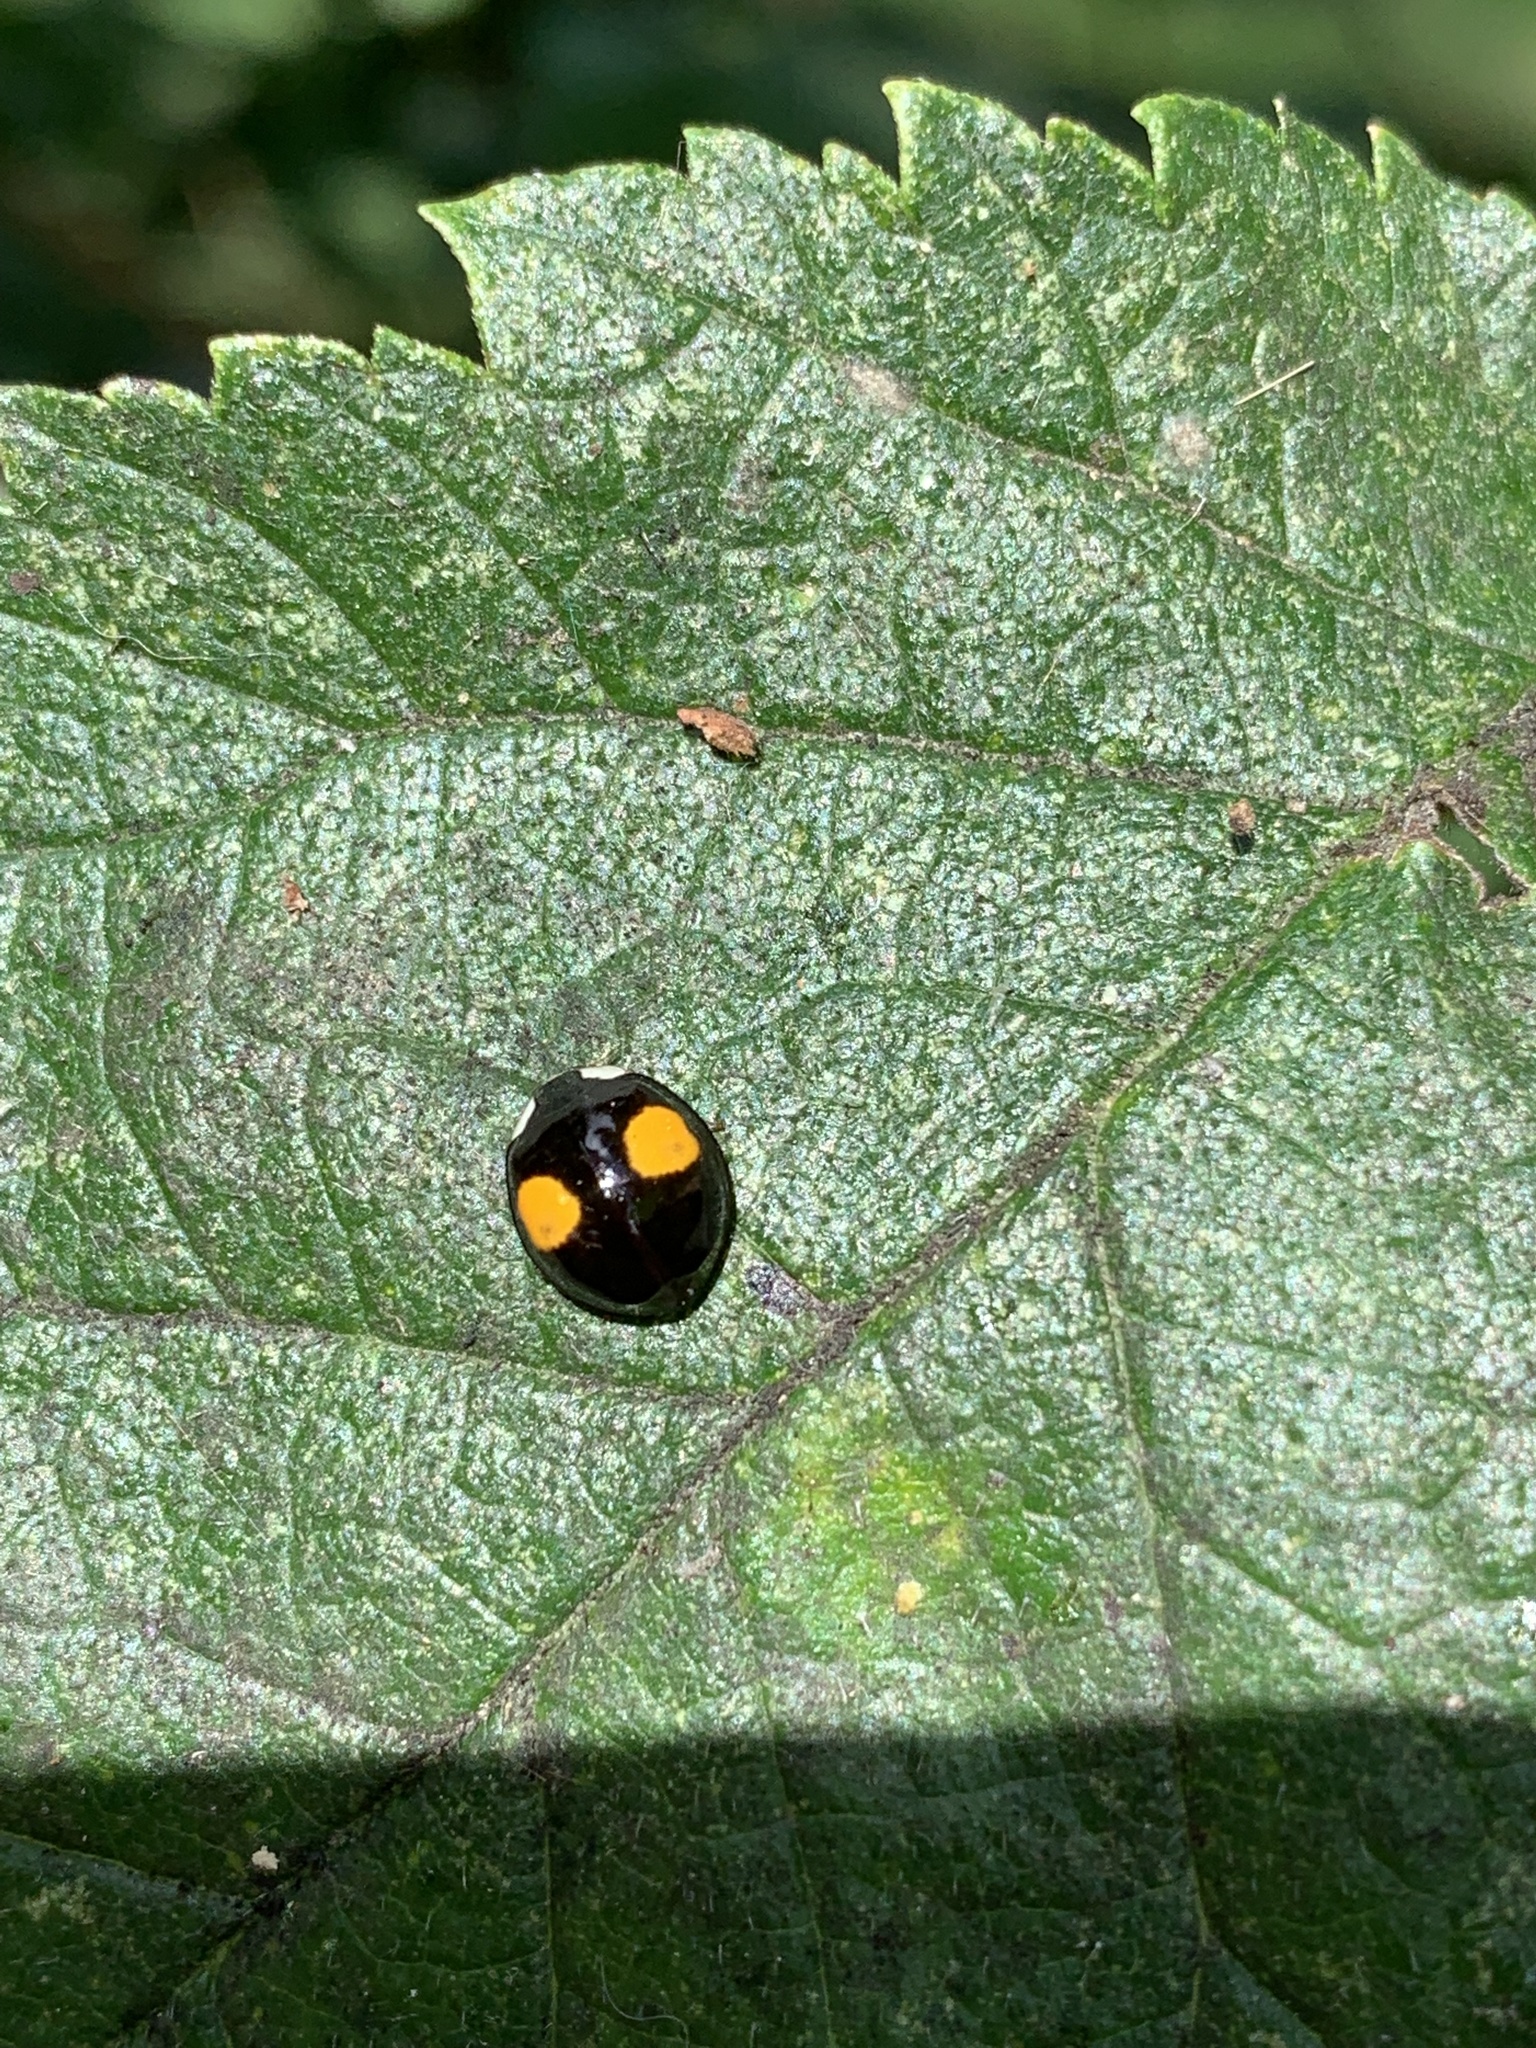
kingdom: Animalia
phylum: Arthropoda
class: Insecta
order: Coleoptera
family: Coccinellidae
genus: Harmonia
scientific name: Harmonia axyridis
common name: Harlequin ladybird
